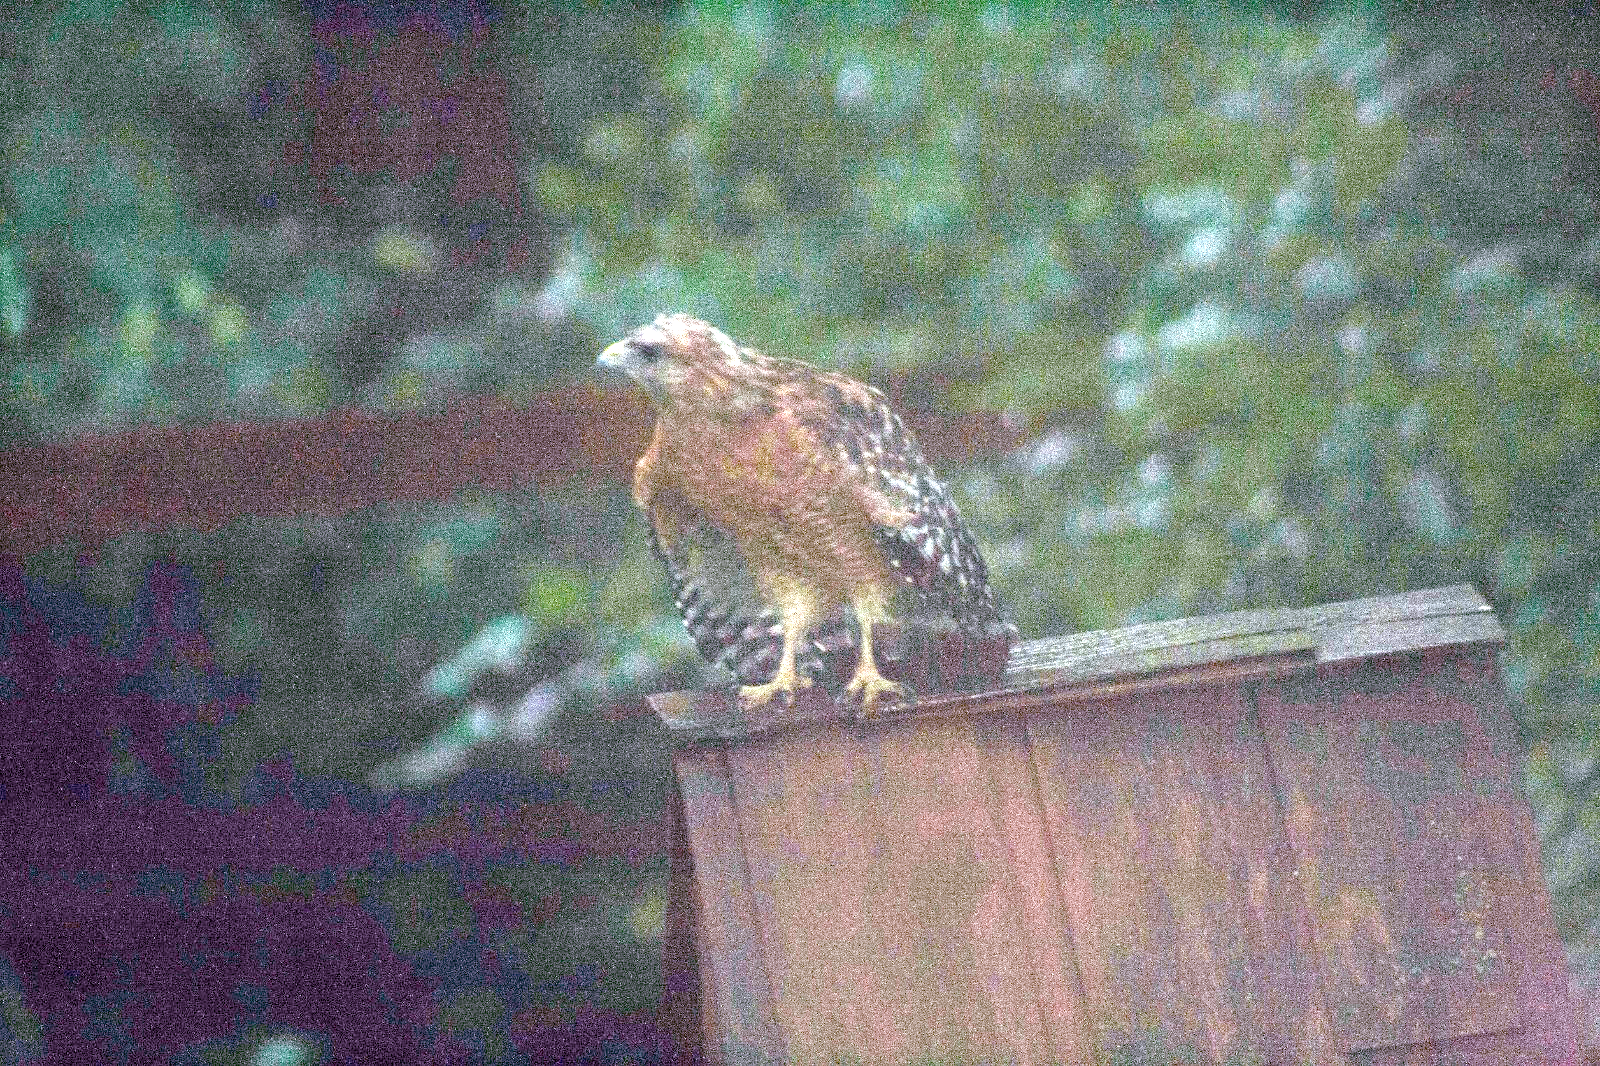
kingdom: Animalia
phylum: Chordata
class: Aves
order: Accipitriformes
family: Accipitridae
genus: Buteo
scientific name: Buteo lineatus
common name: Red-shouldered hawk
